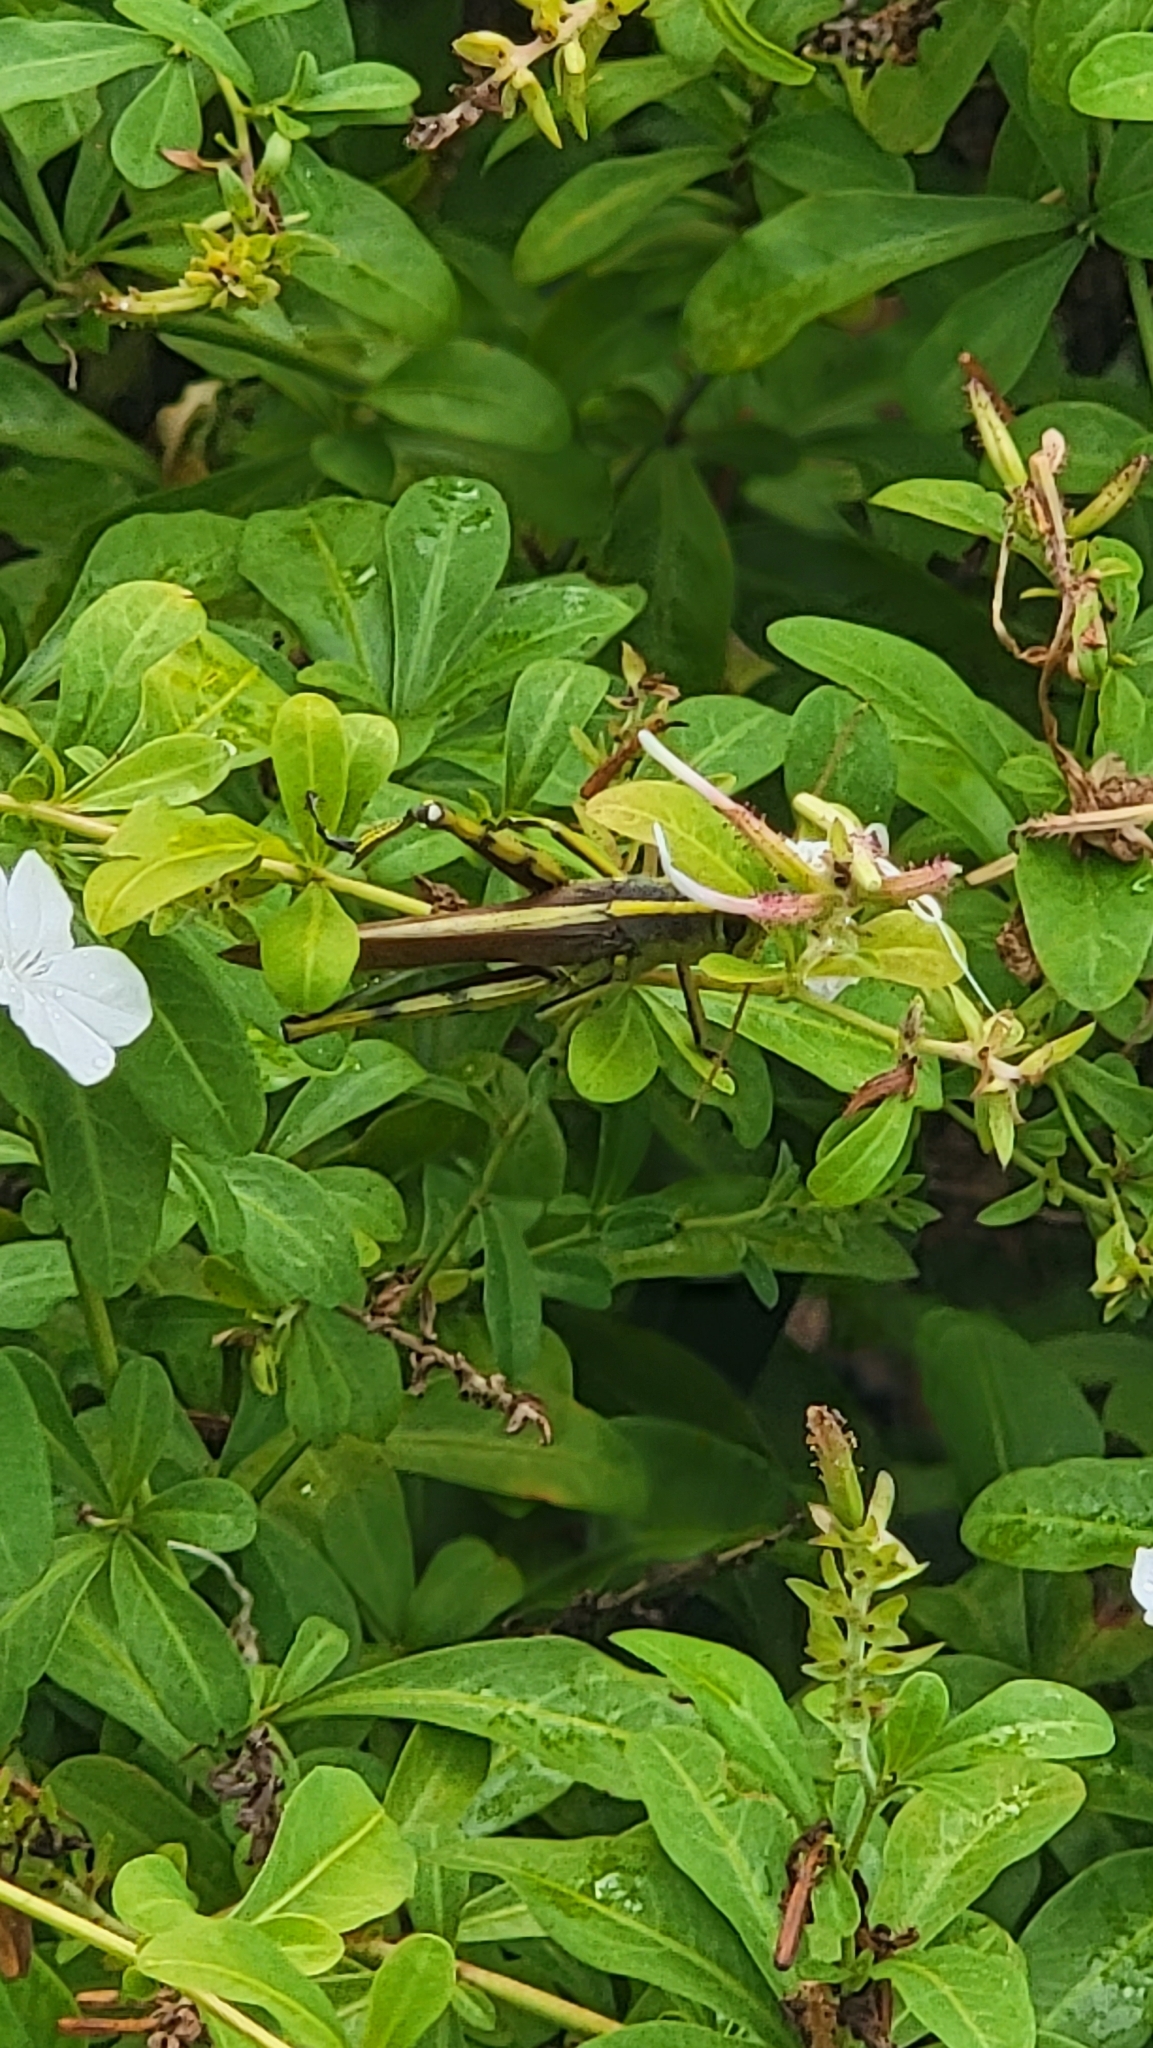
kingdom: Animalia
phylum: Arthropoda
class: Insecta
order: Orthoptera
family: Acrididae
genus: Schistocerca
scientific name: Schistocerca obscura
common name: Obscure bird grasshopper
